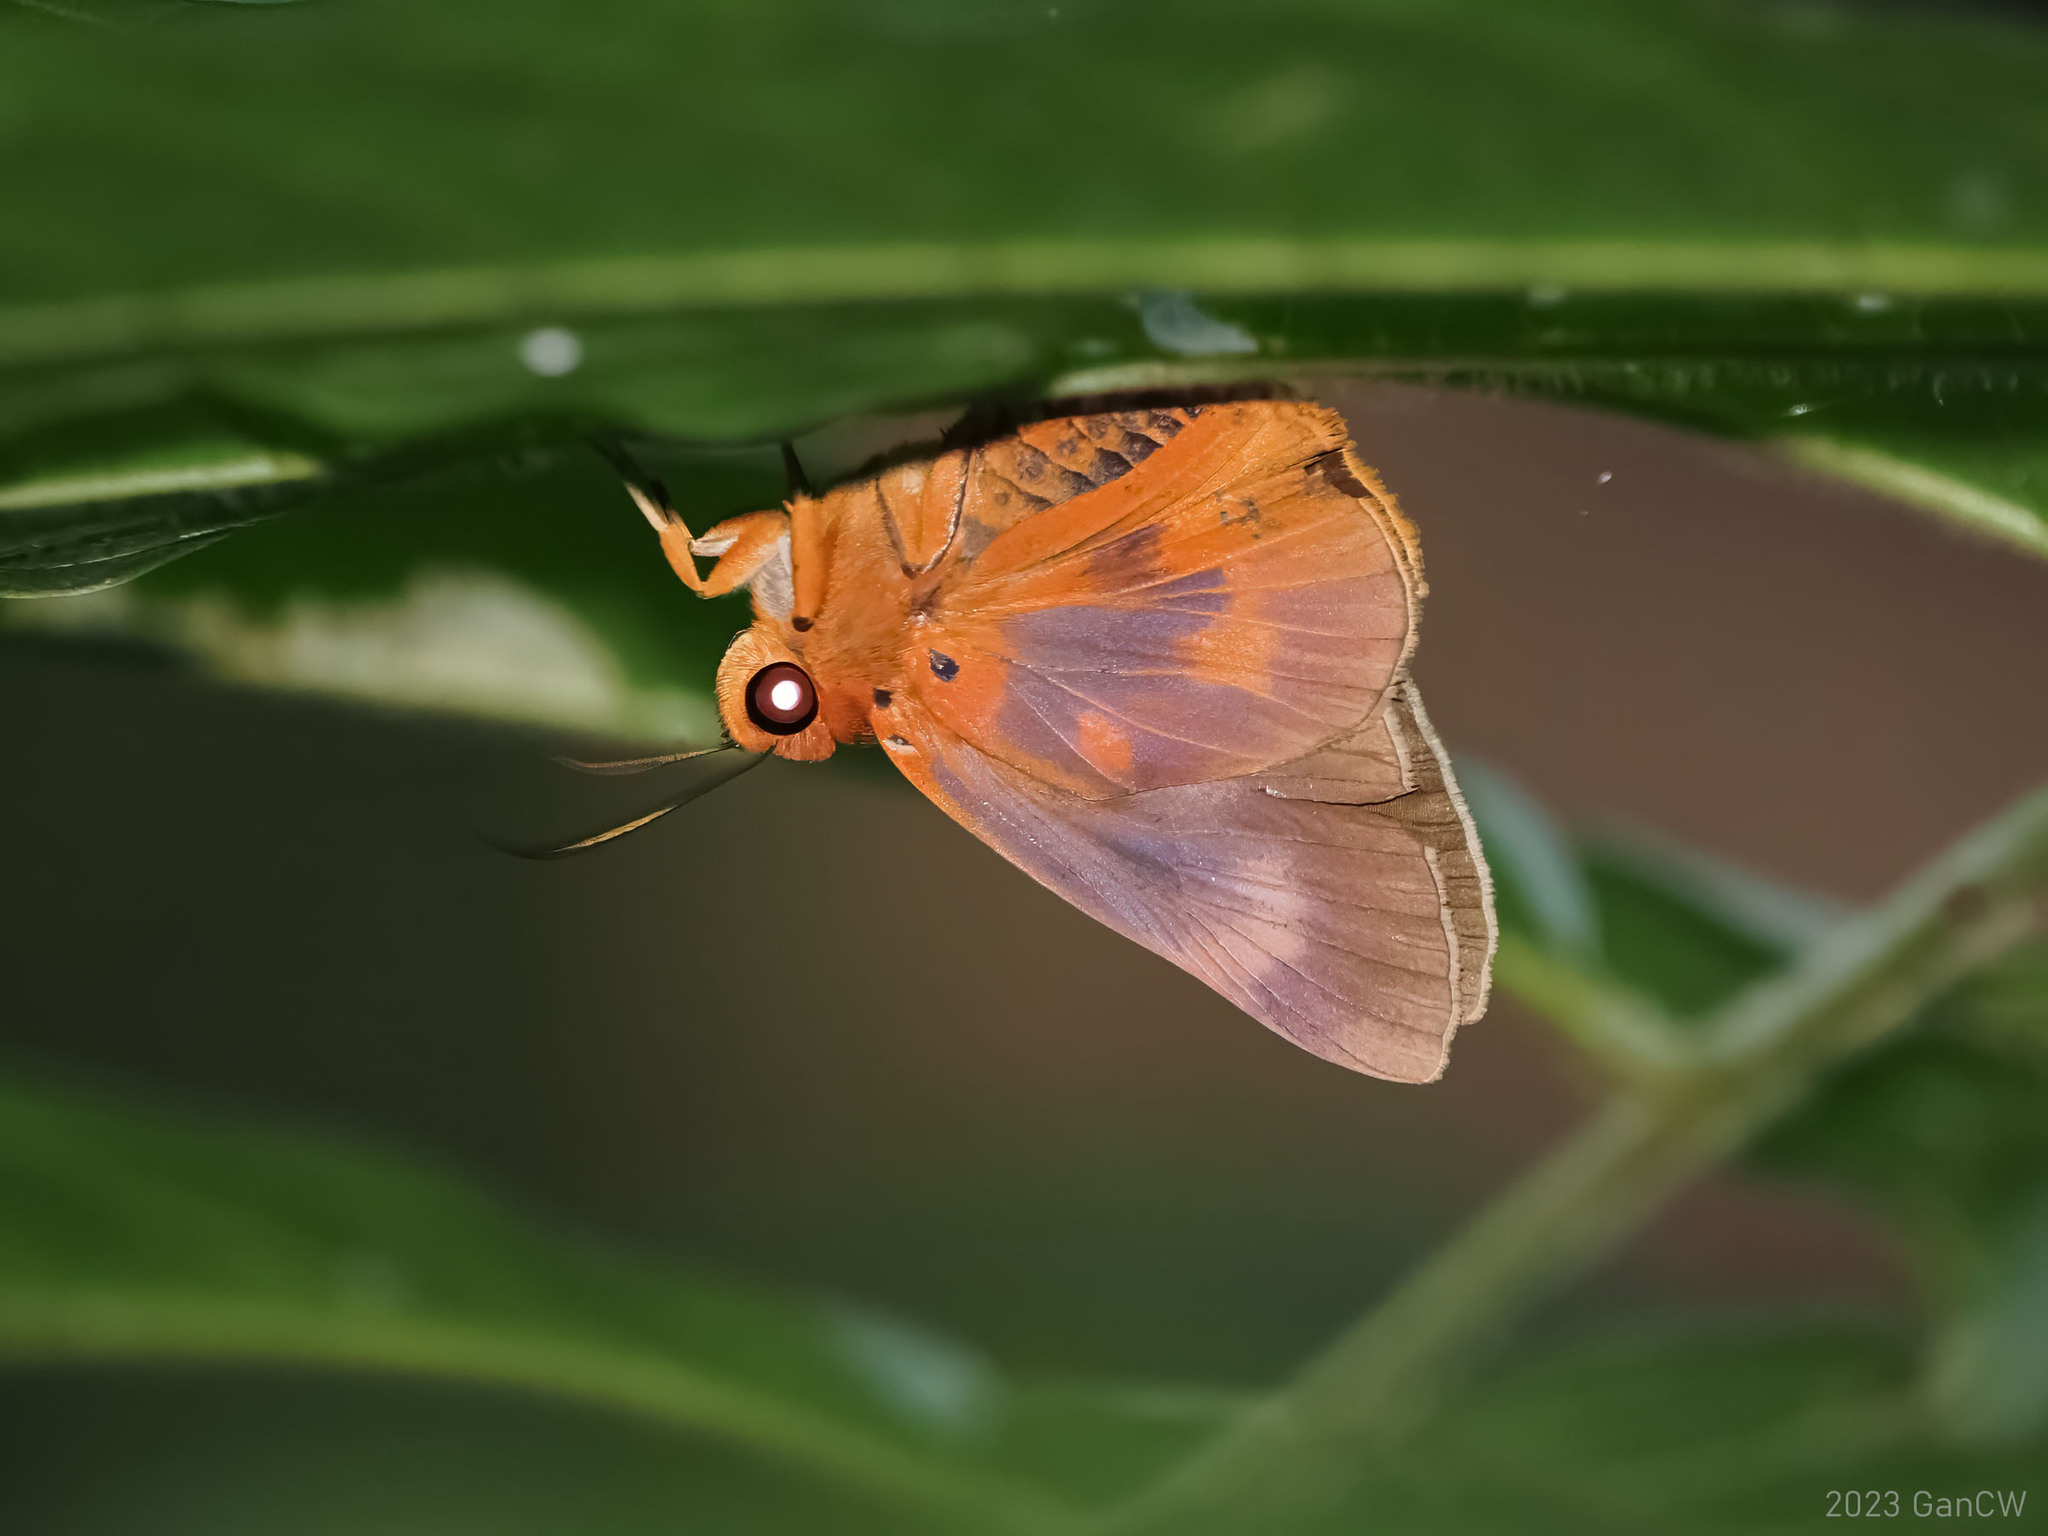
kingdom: Animalia
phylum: Arthropoda
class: Insecta
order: Lepidoptera
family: Hesperiidae
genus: Bibasis
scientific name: Bibasis oedipodea
